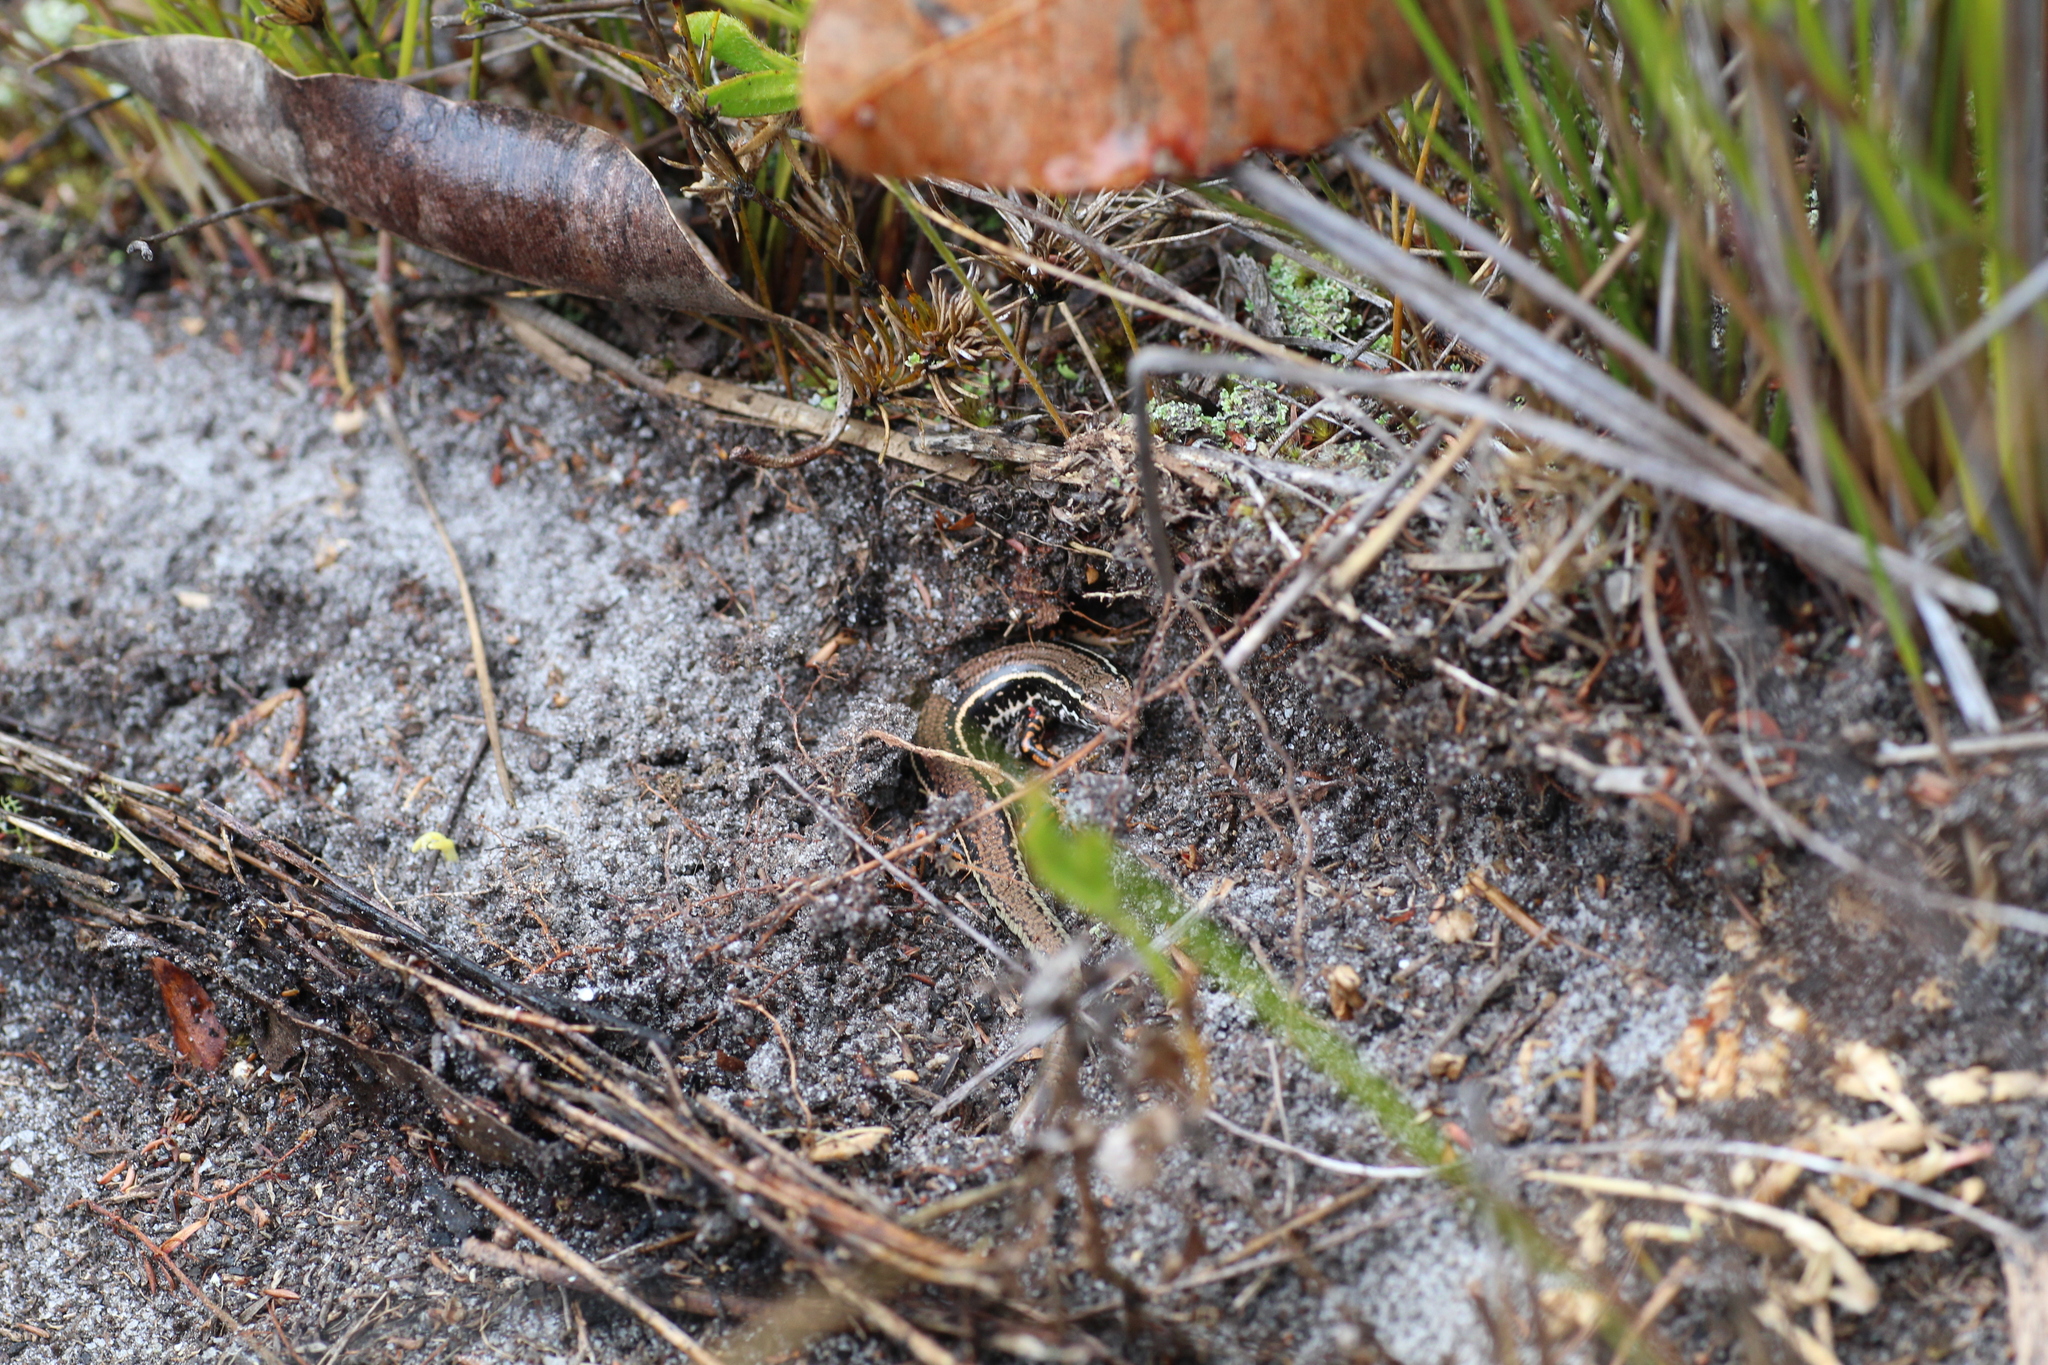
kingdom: Animalia
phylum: Chordata
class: Squamata
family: Scincidae
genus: Ctenotus
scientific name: Ctenotus labillardieri
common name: Common south-west ctenotus
